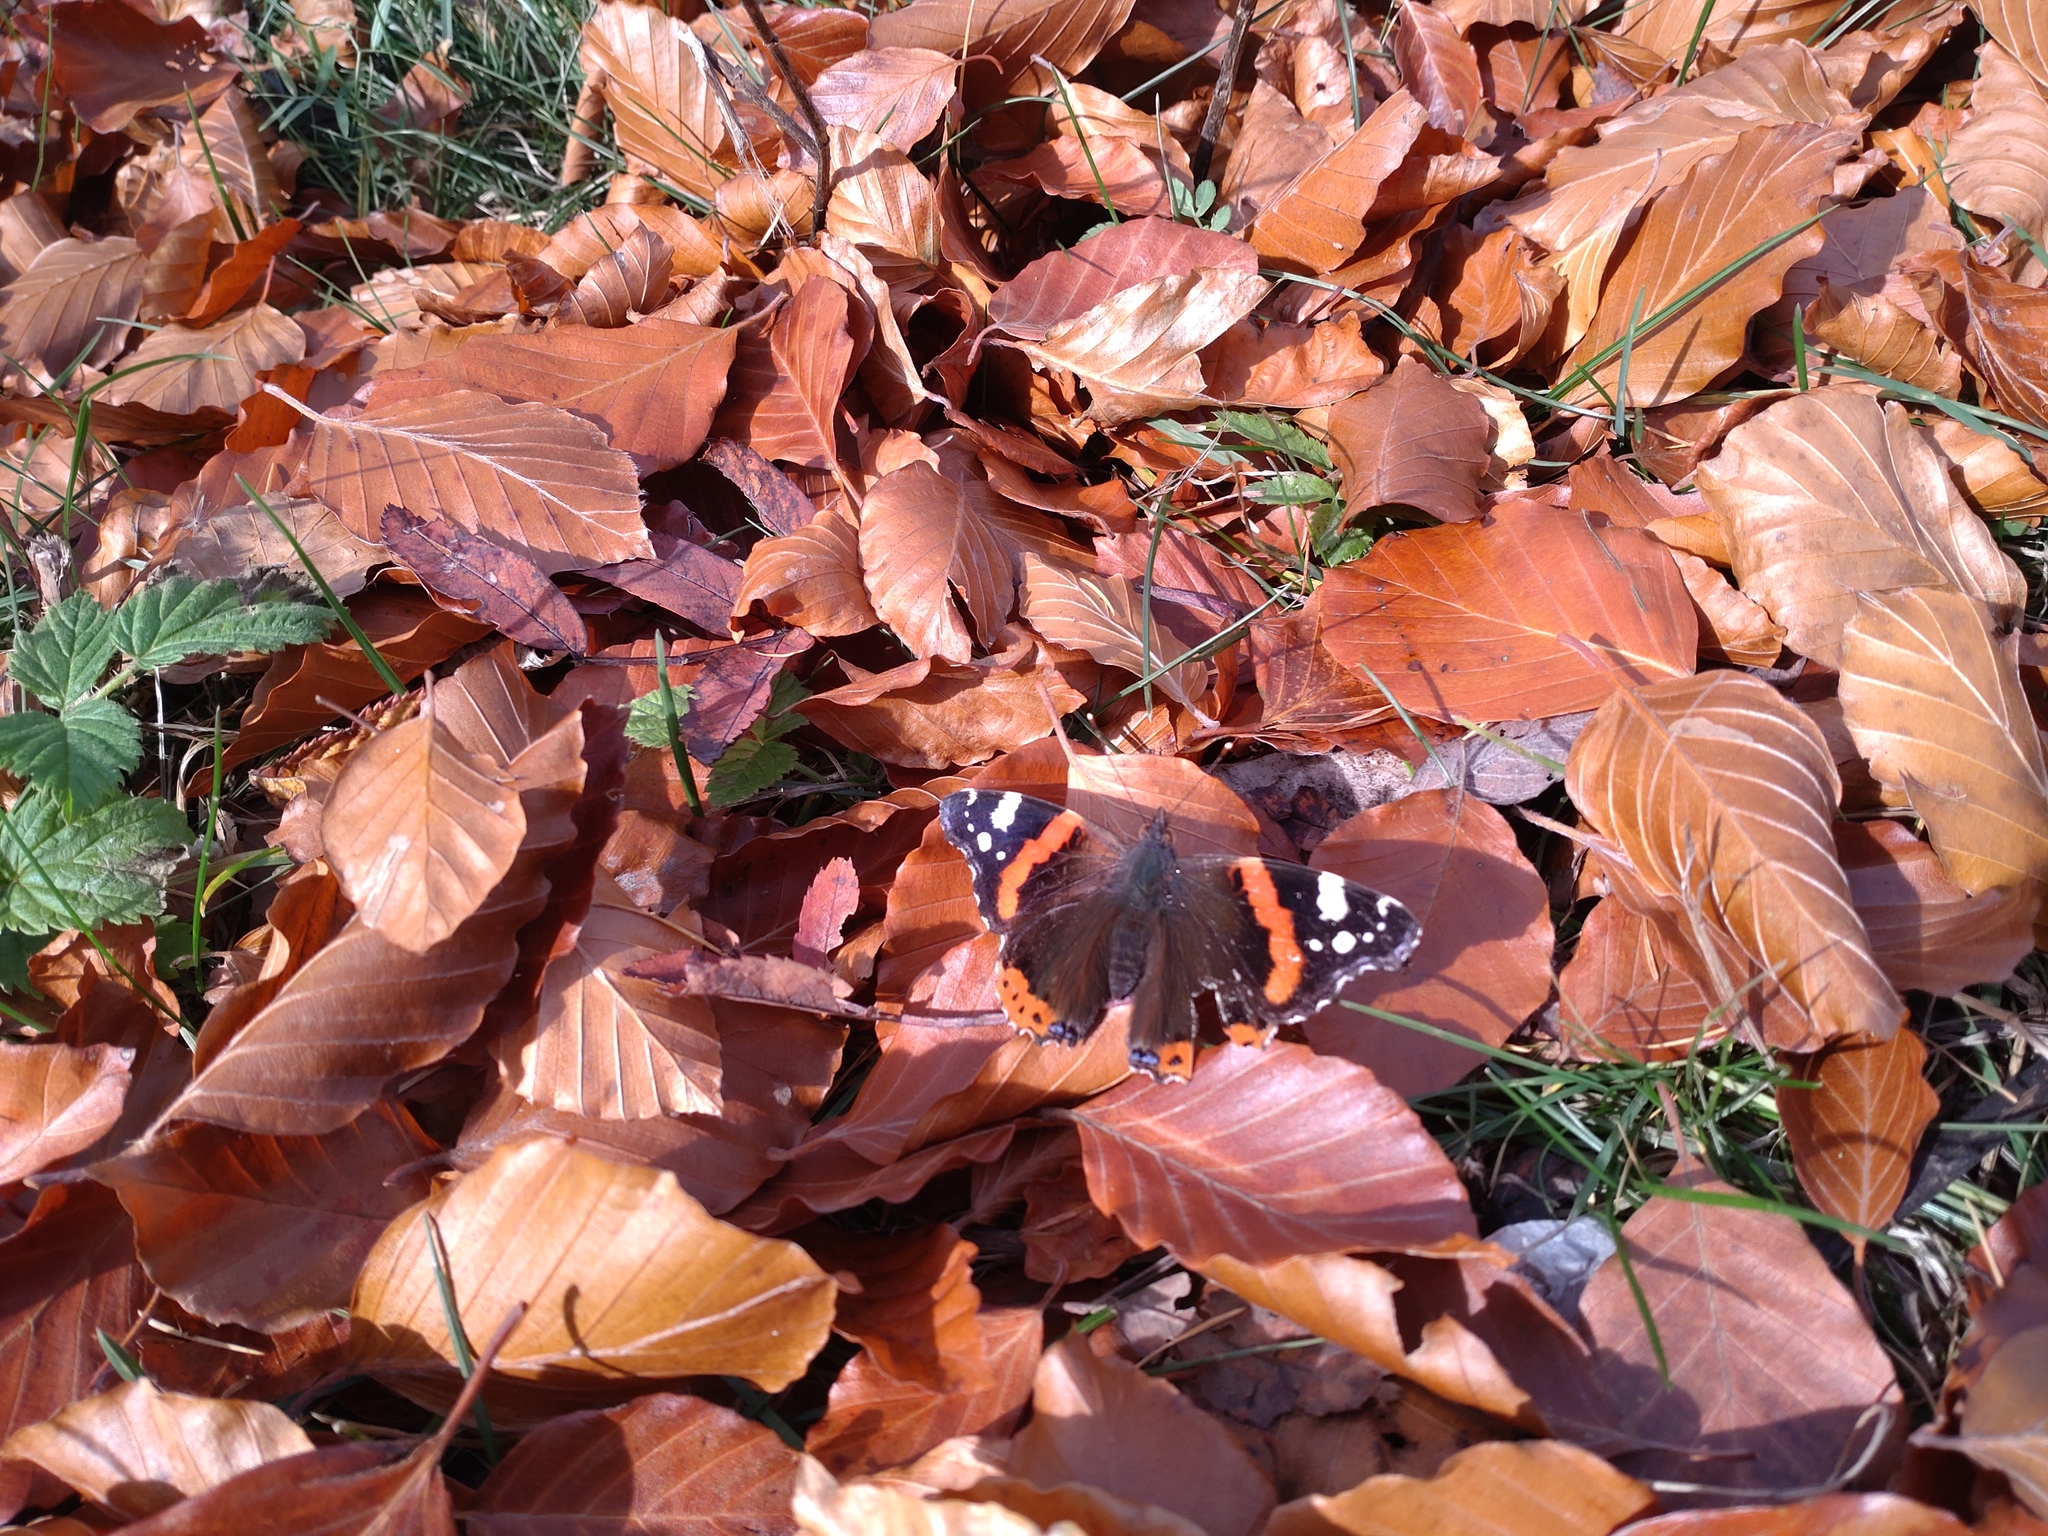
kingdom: Animalia
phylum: Arthropoda
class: Insecta
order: Lepidoptera
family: Nymphalidae
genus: Vanessa
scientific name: Vanessa atalanta
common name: Red admiral
